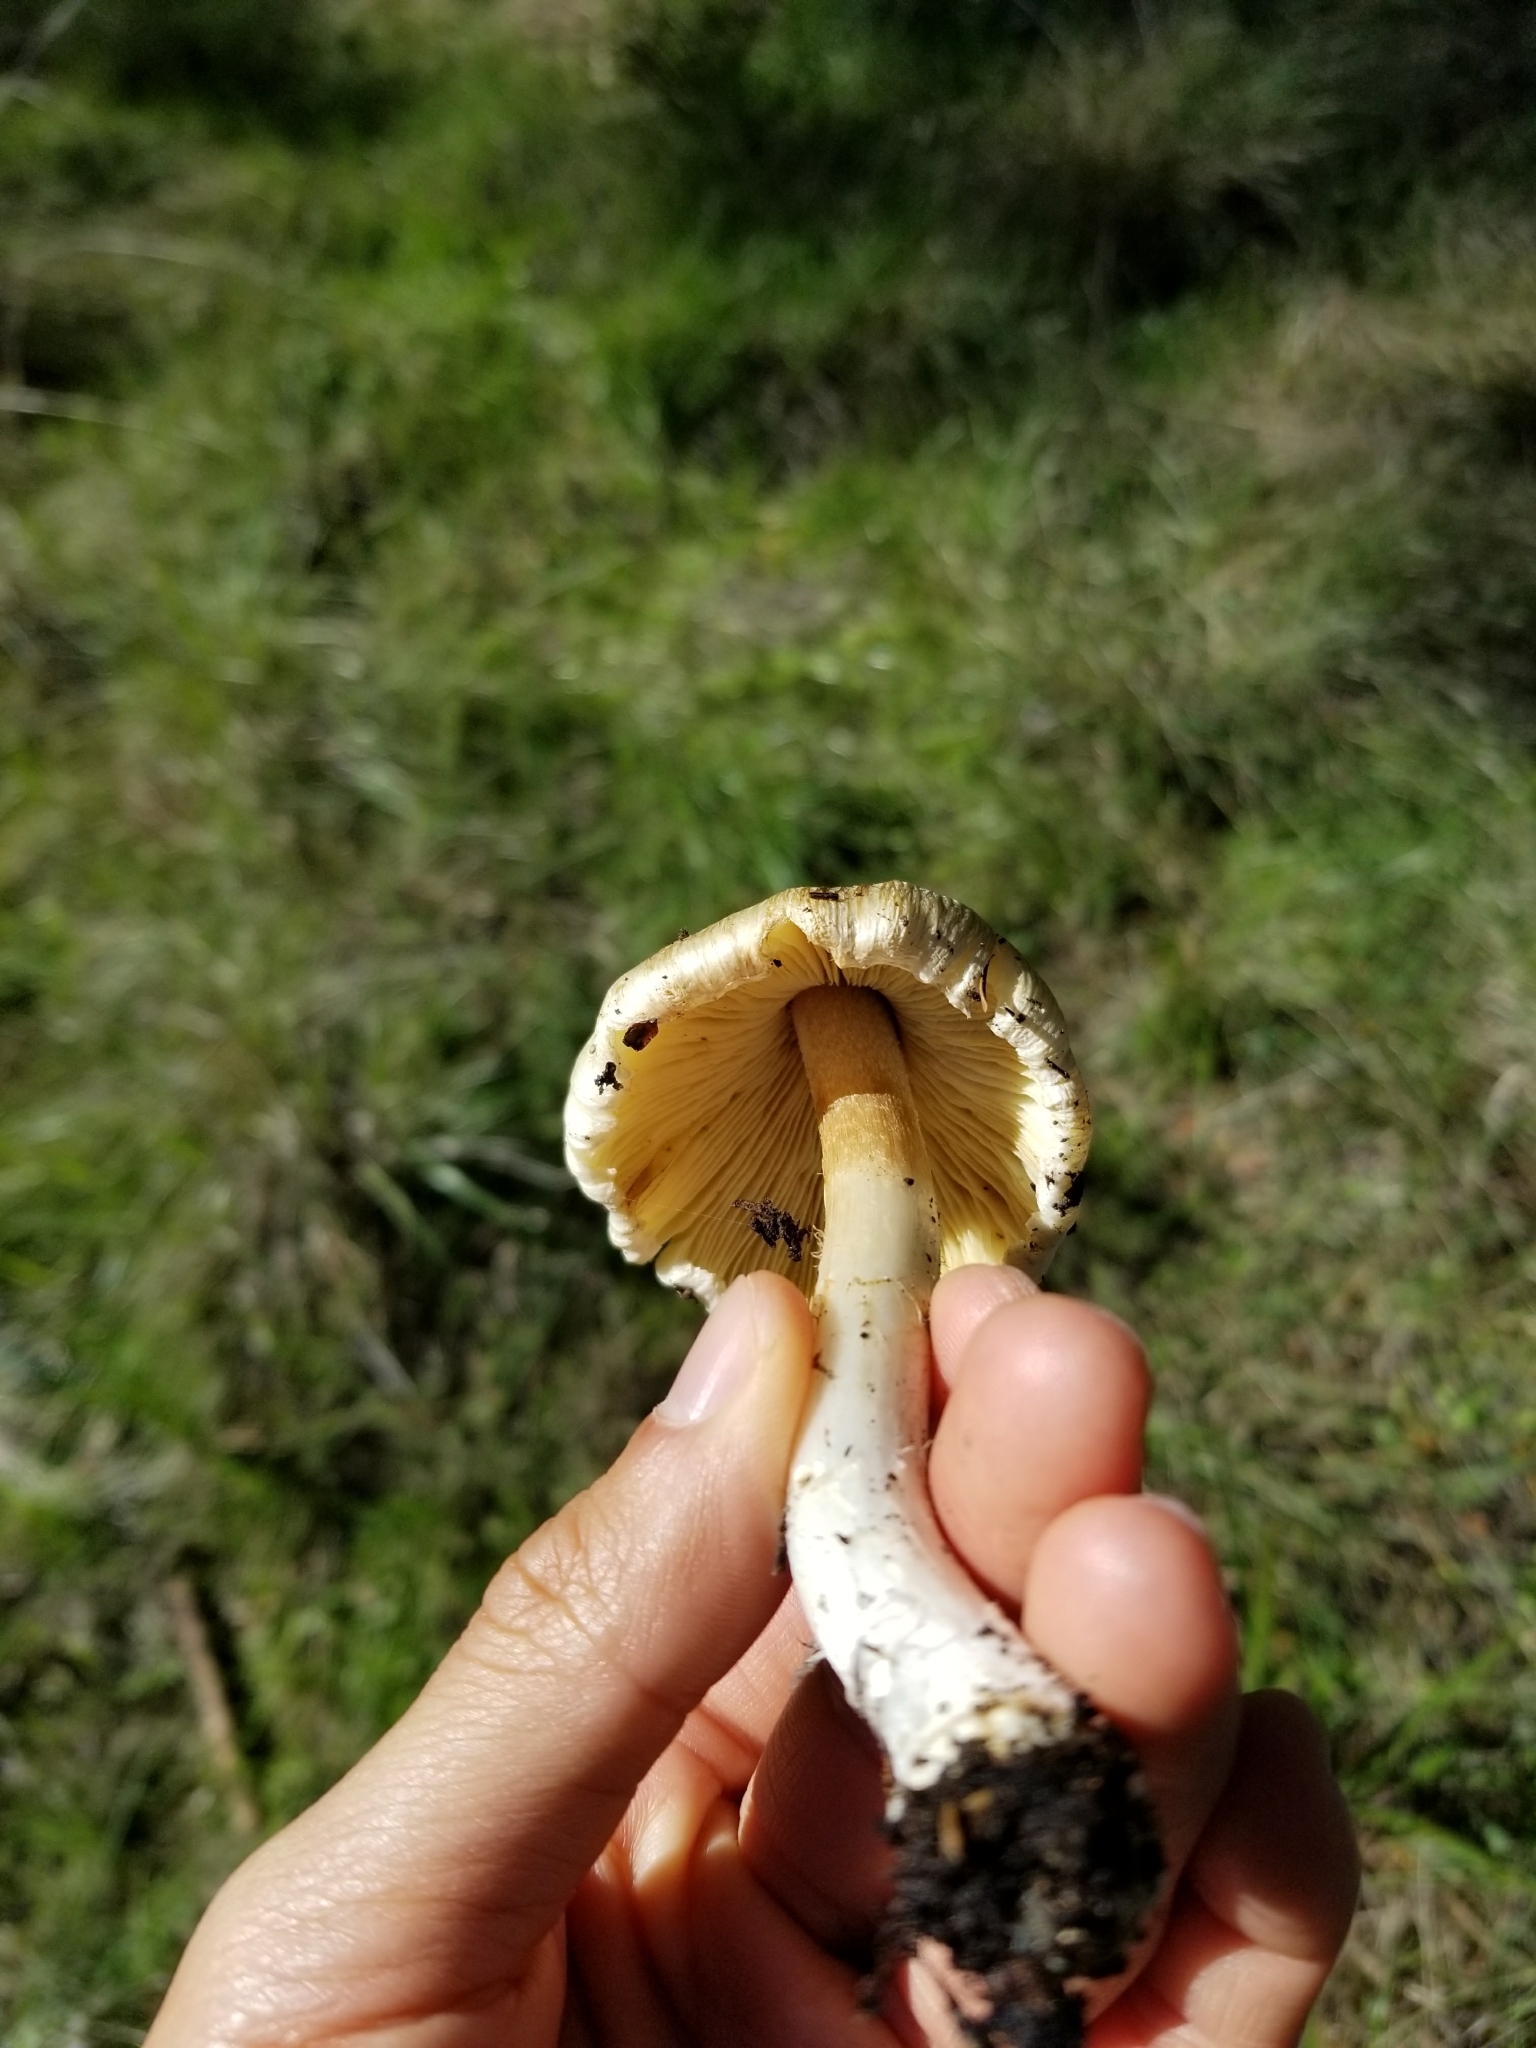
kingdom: Fungi
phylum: Basidiomycota
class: Agaricomycetes
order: Agaricales
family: Inocybaceae
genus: Pseudosperma
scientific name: Pseudosperma sororium
